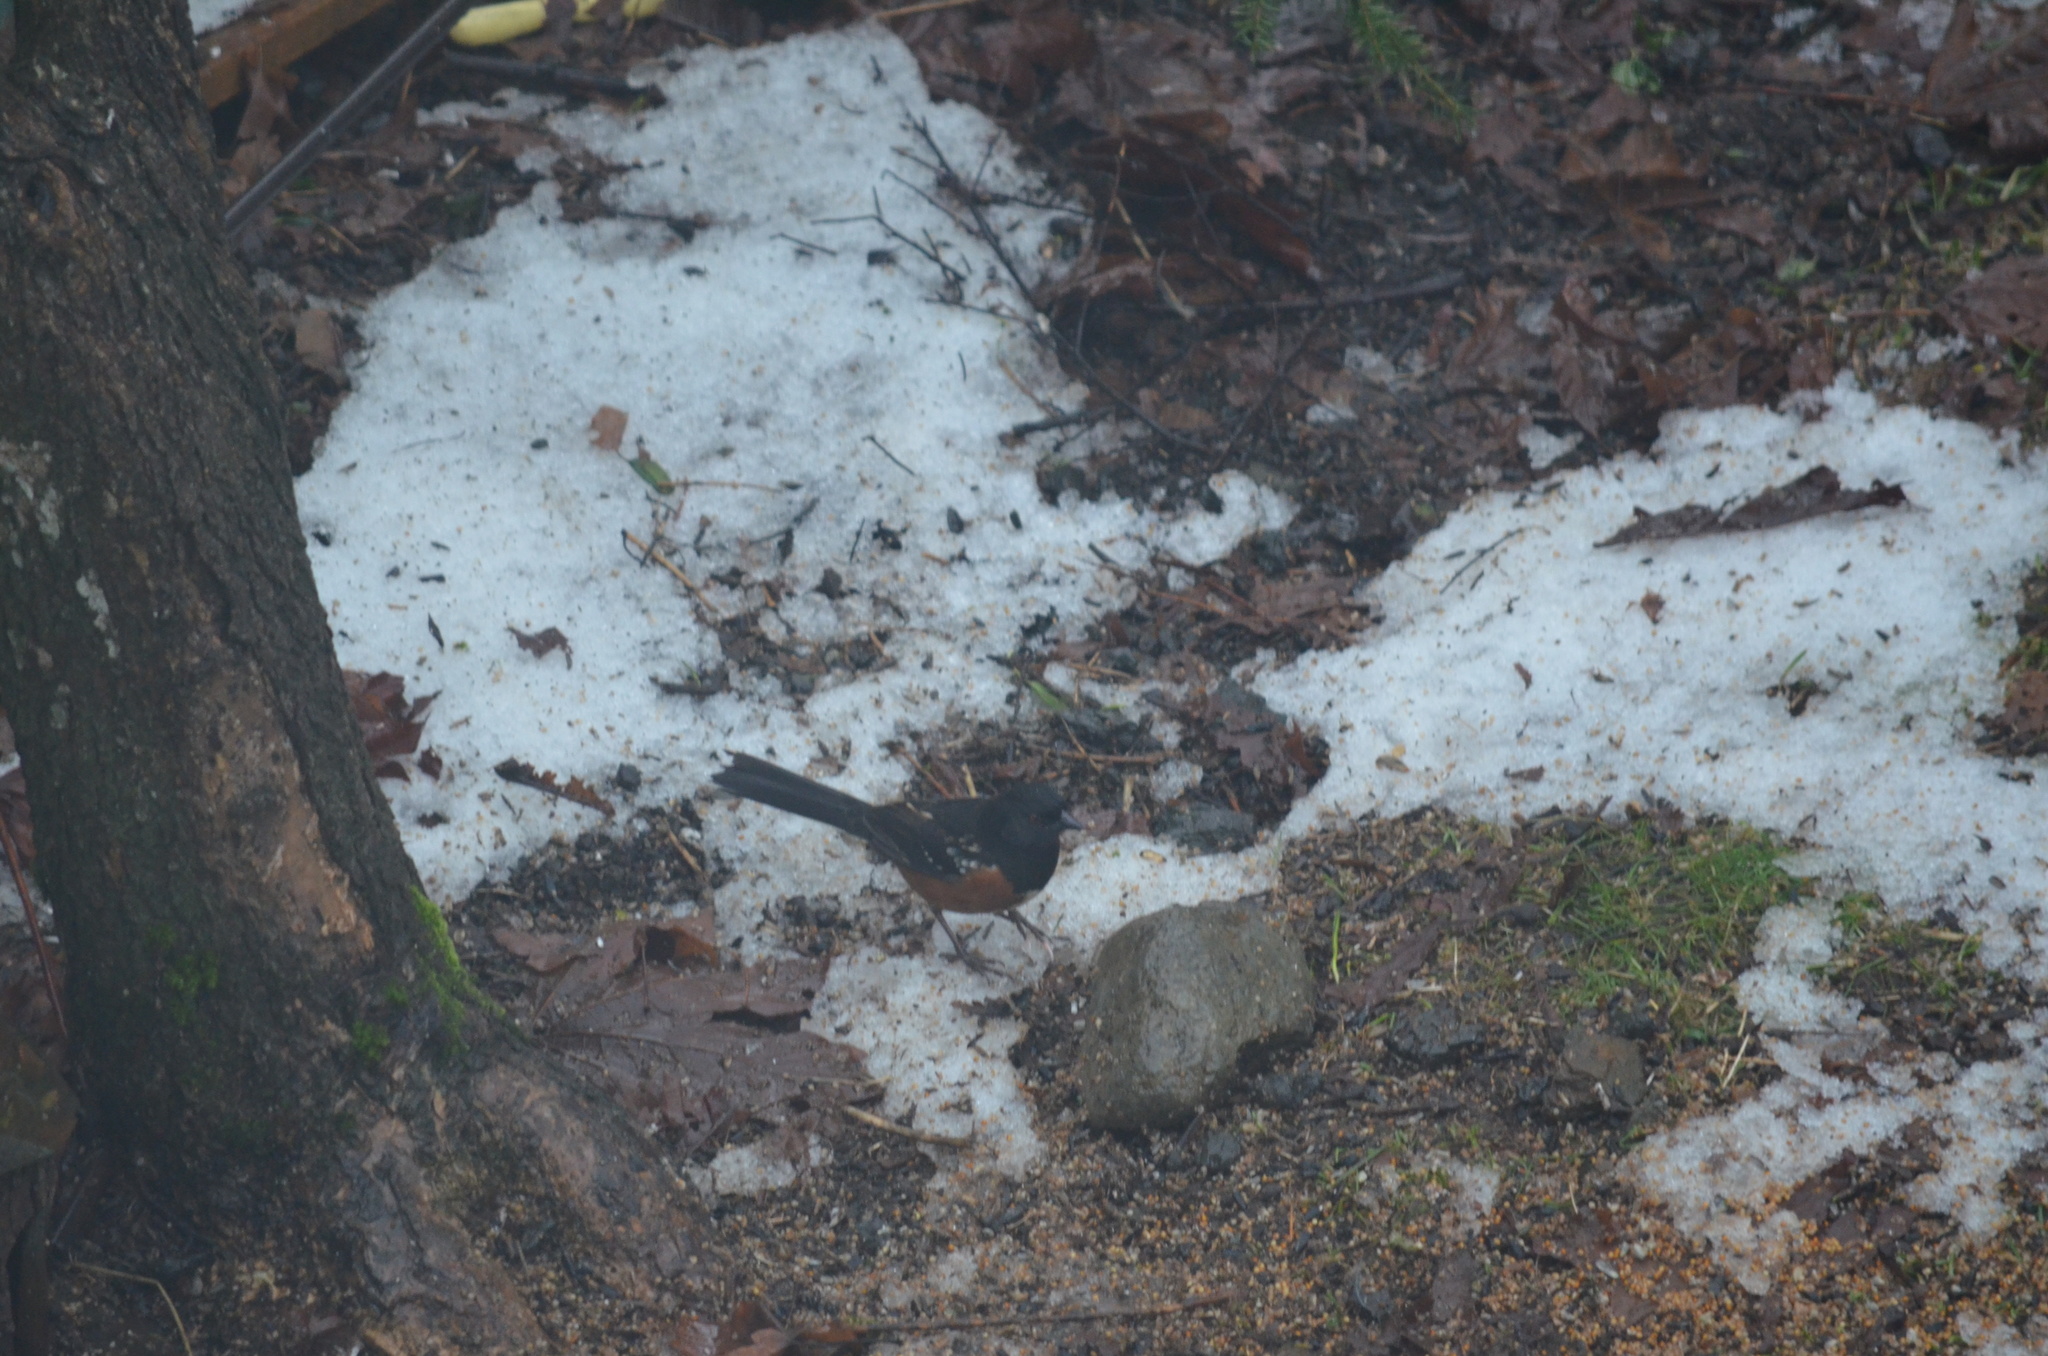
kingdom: Animalia
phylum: Chordata
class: Aves
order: Passeriformes
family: Passerellidae
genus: Pipilo
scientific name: Pipilo maculatus
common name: Spotted towhee
